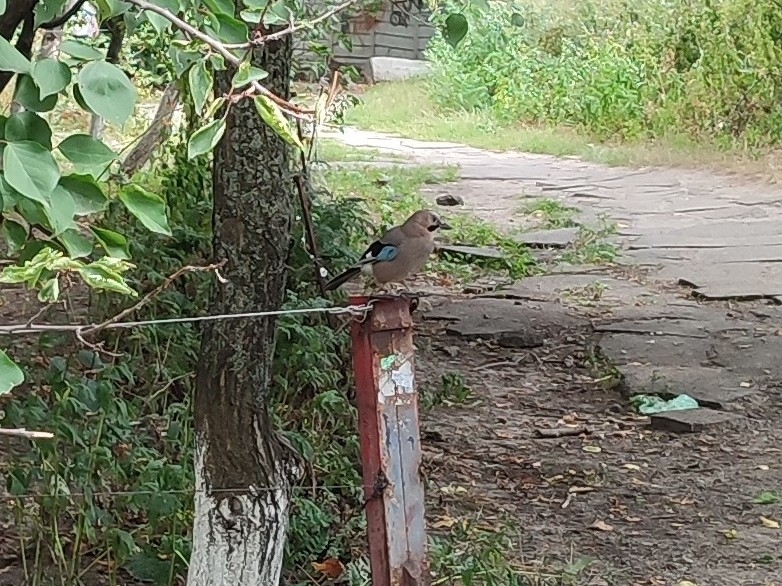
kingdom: Animalia
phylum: Chordata
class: Aves
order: Passeriformes
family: Corvidae
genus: Garrulus
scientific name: Garrulus glandarius
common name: Eurasian jay
